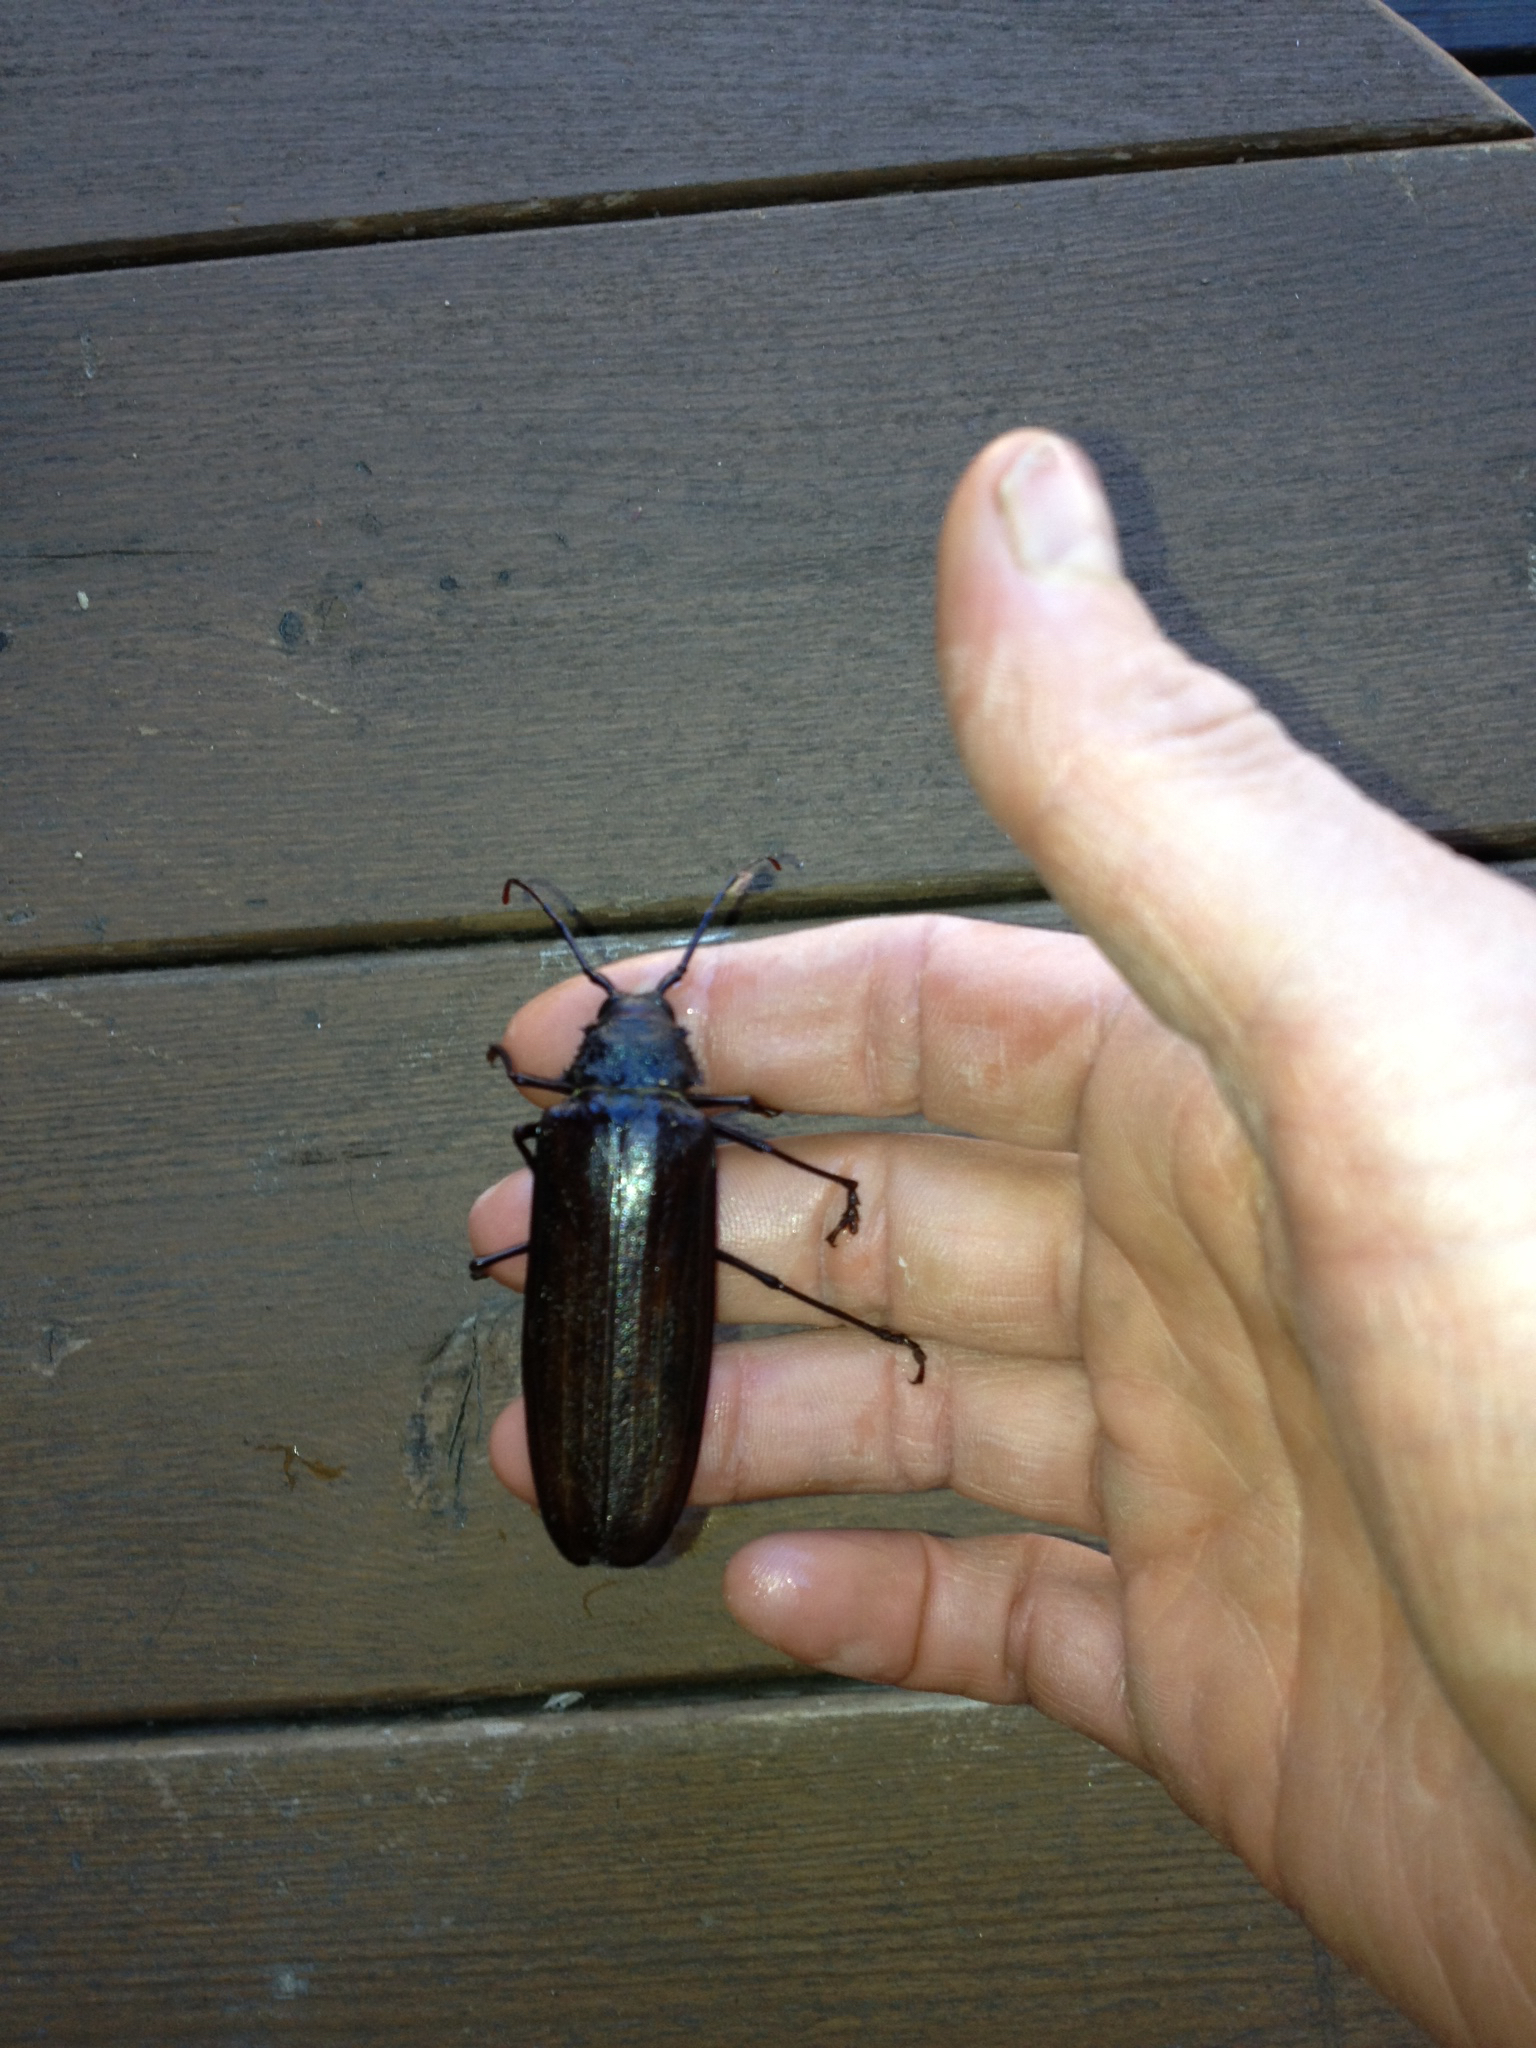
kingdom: Animalia
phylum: Arthropoda
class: Insecta
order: Coleoptera
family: Cerambycidae
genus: Trichocnemis
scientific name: Trichocnemis spiculatus
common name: Long-horned beetle
